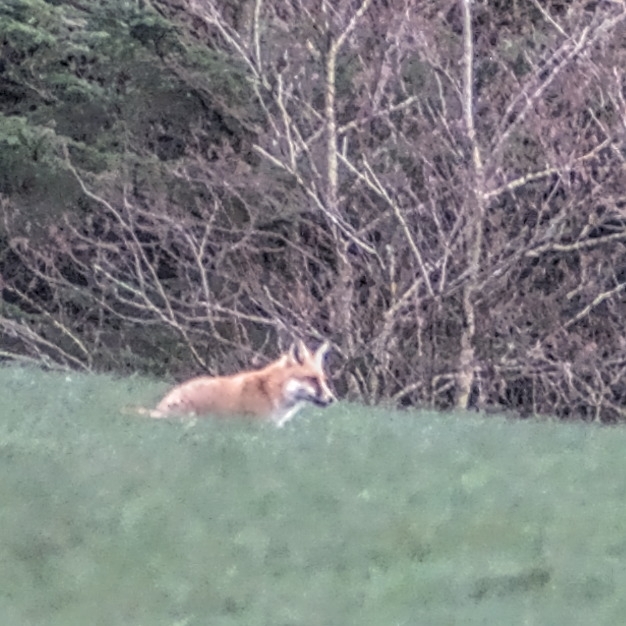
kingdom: Animalia
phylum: Chordata
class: Mammalia
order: Carnivora
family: Canidae
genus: Vulpes
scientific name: Vulpes vulpes
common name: Red fox
